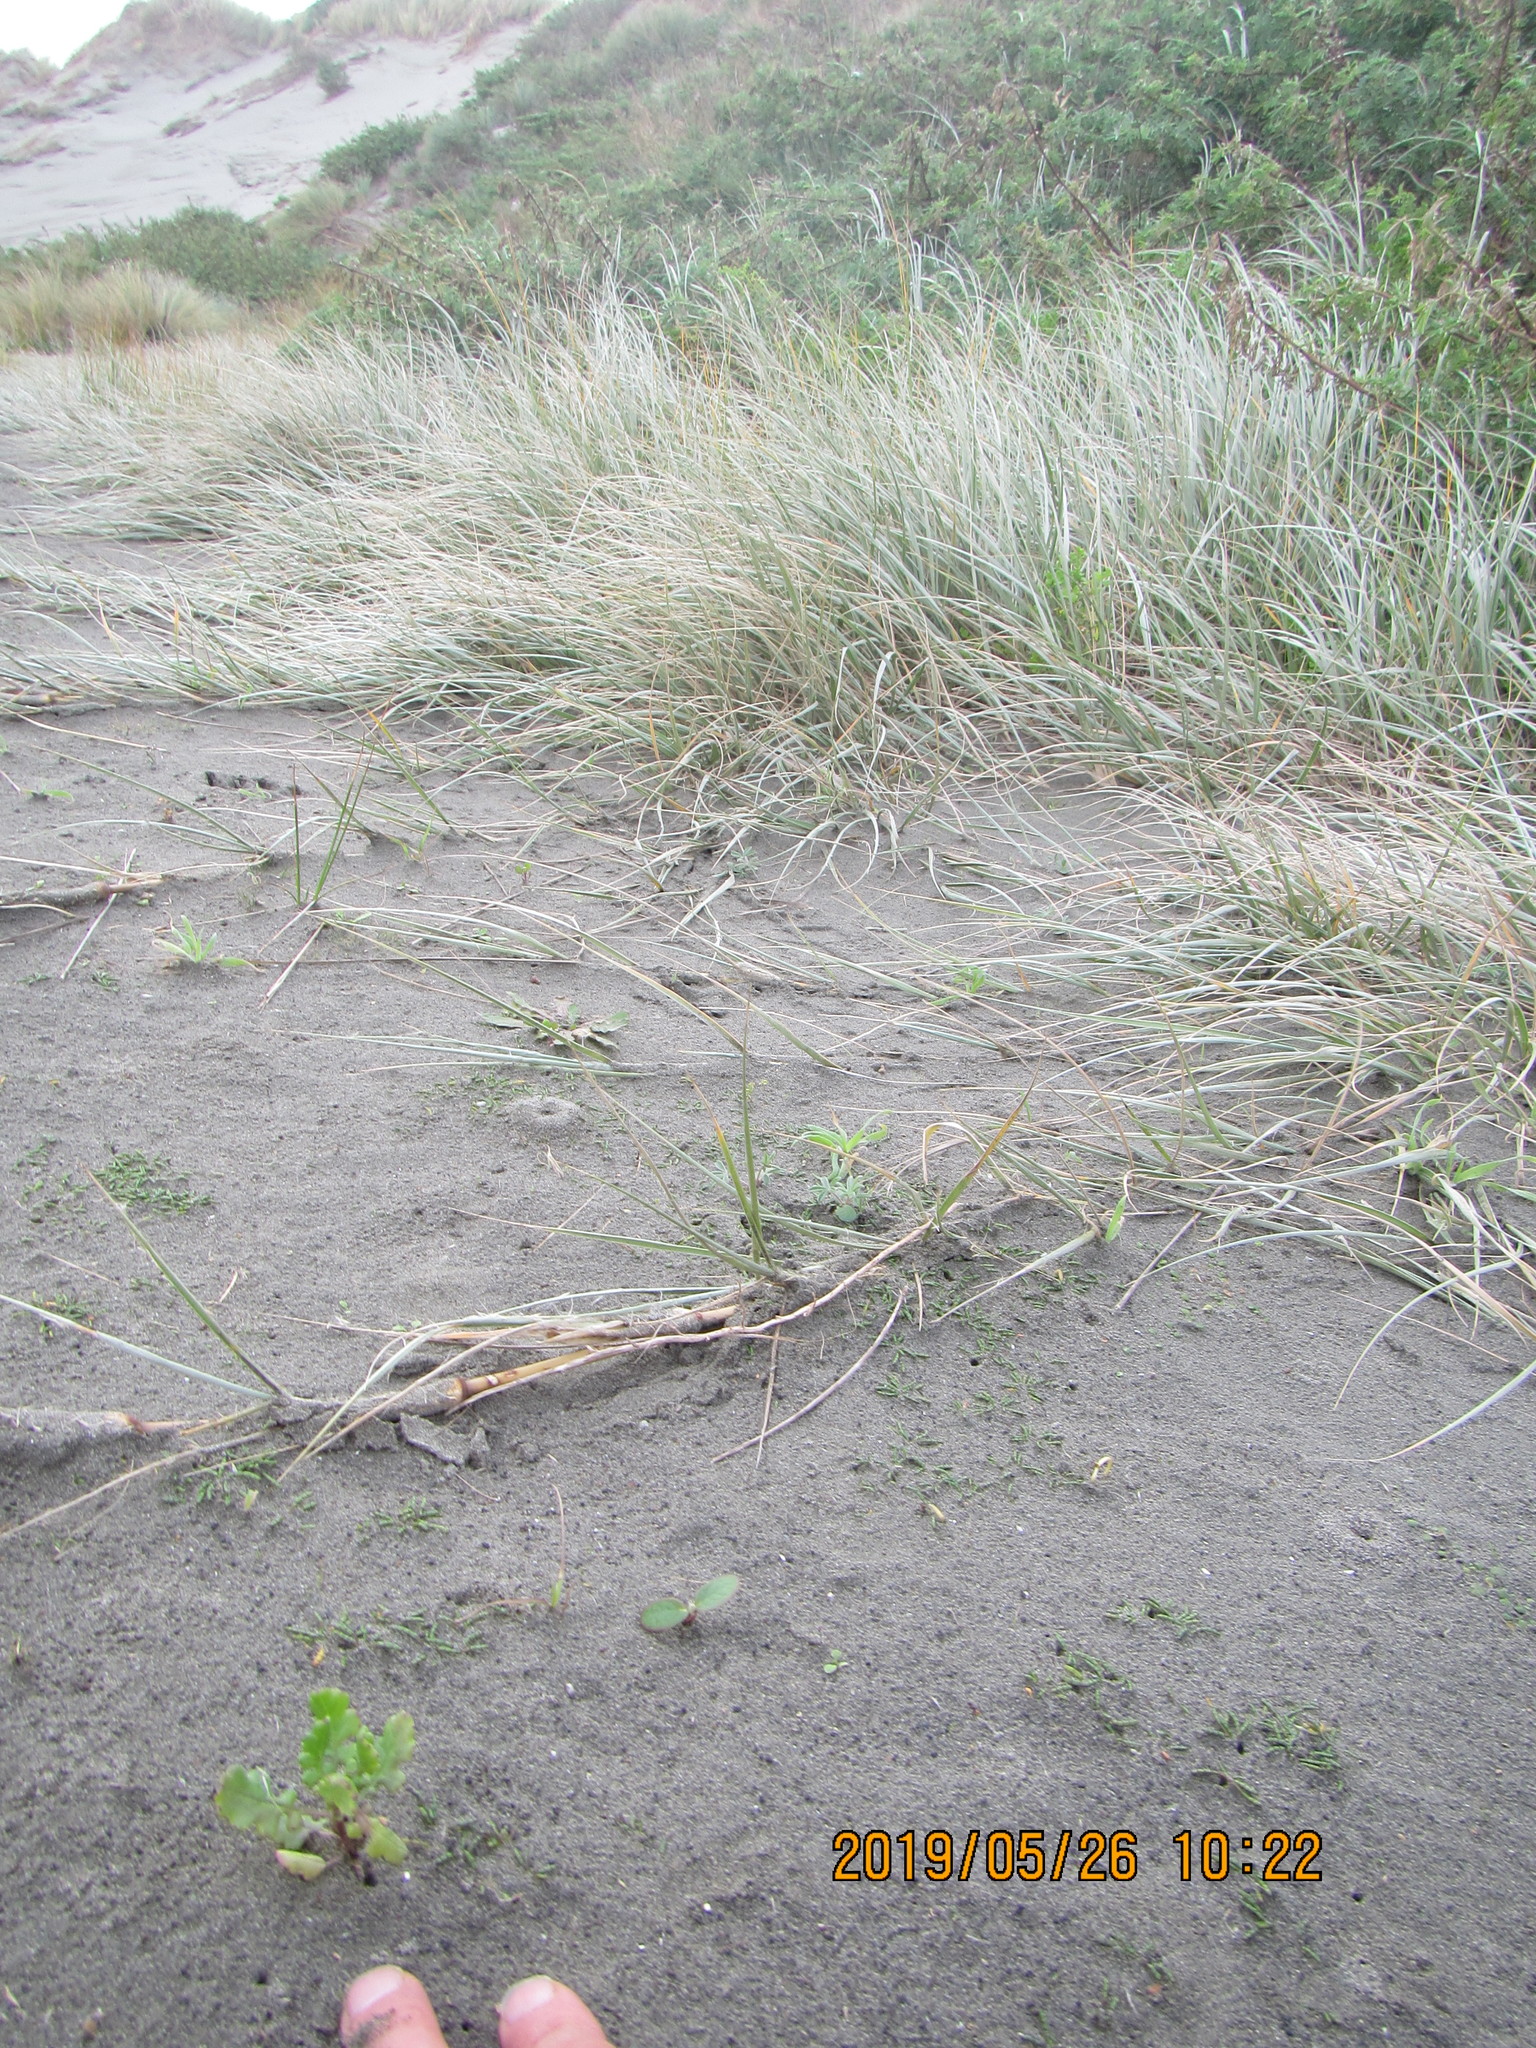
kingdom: Plantae
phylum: Tracheophyta
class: Magnoliopsida
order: Fabales
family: Fabaceae
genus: Lupinus
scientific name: Lupinus arboreus
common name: Yellow bush lupine
